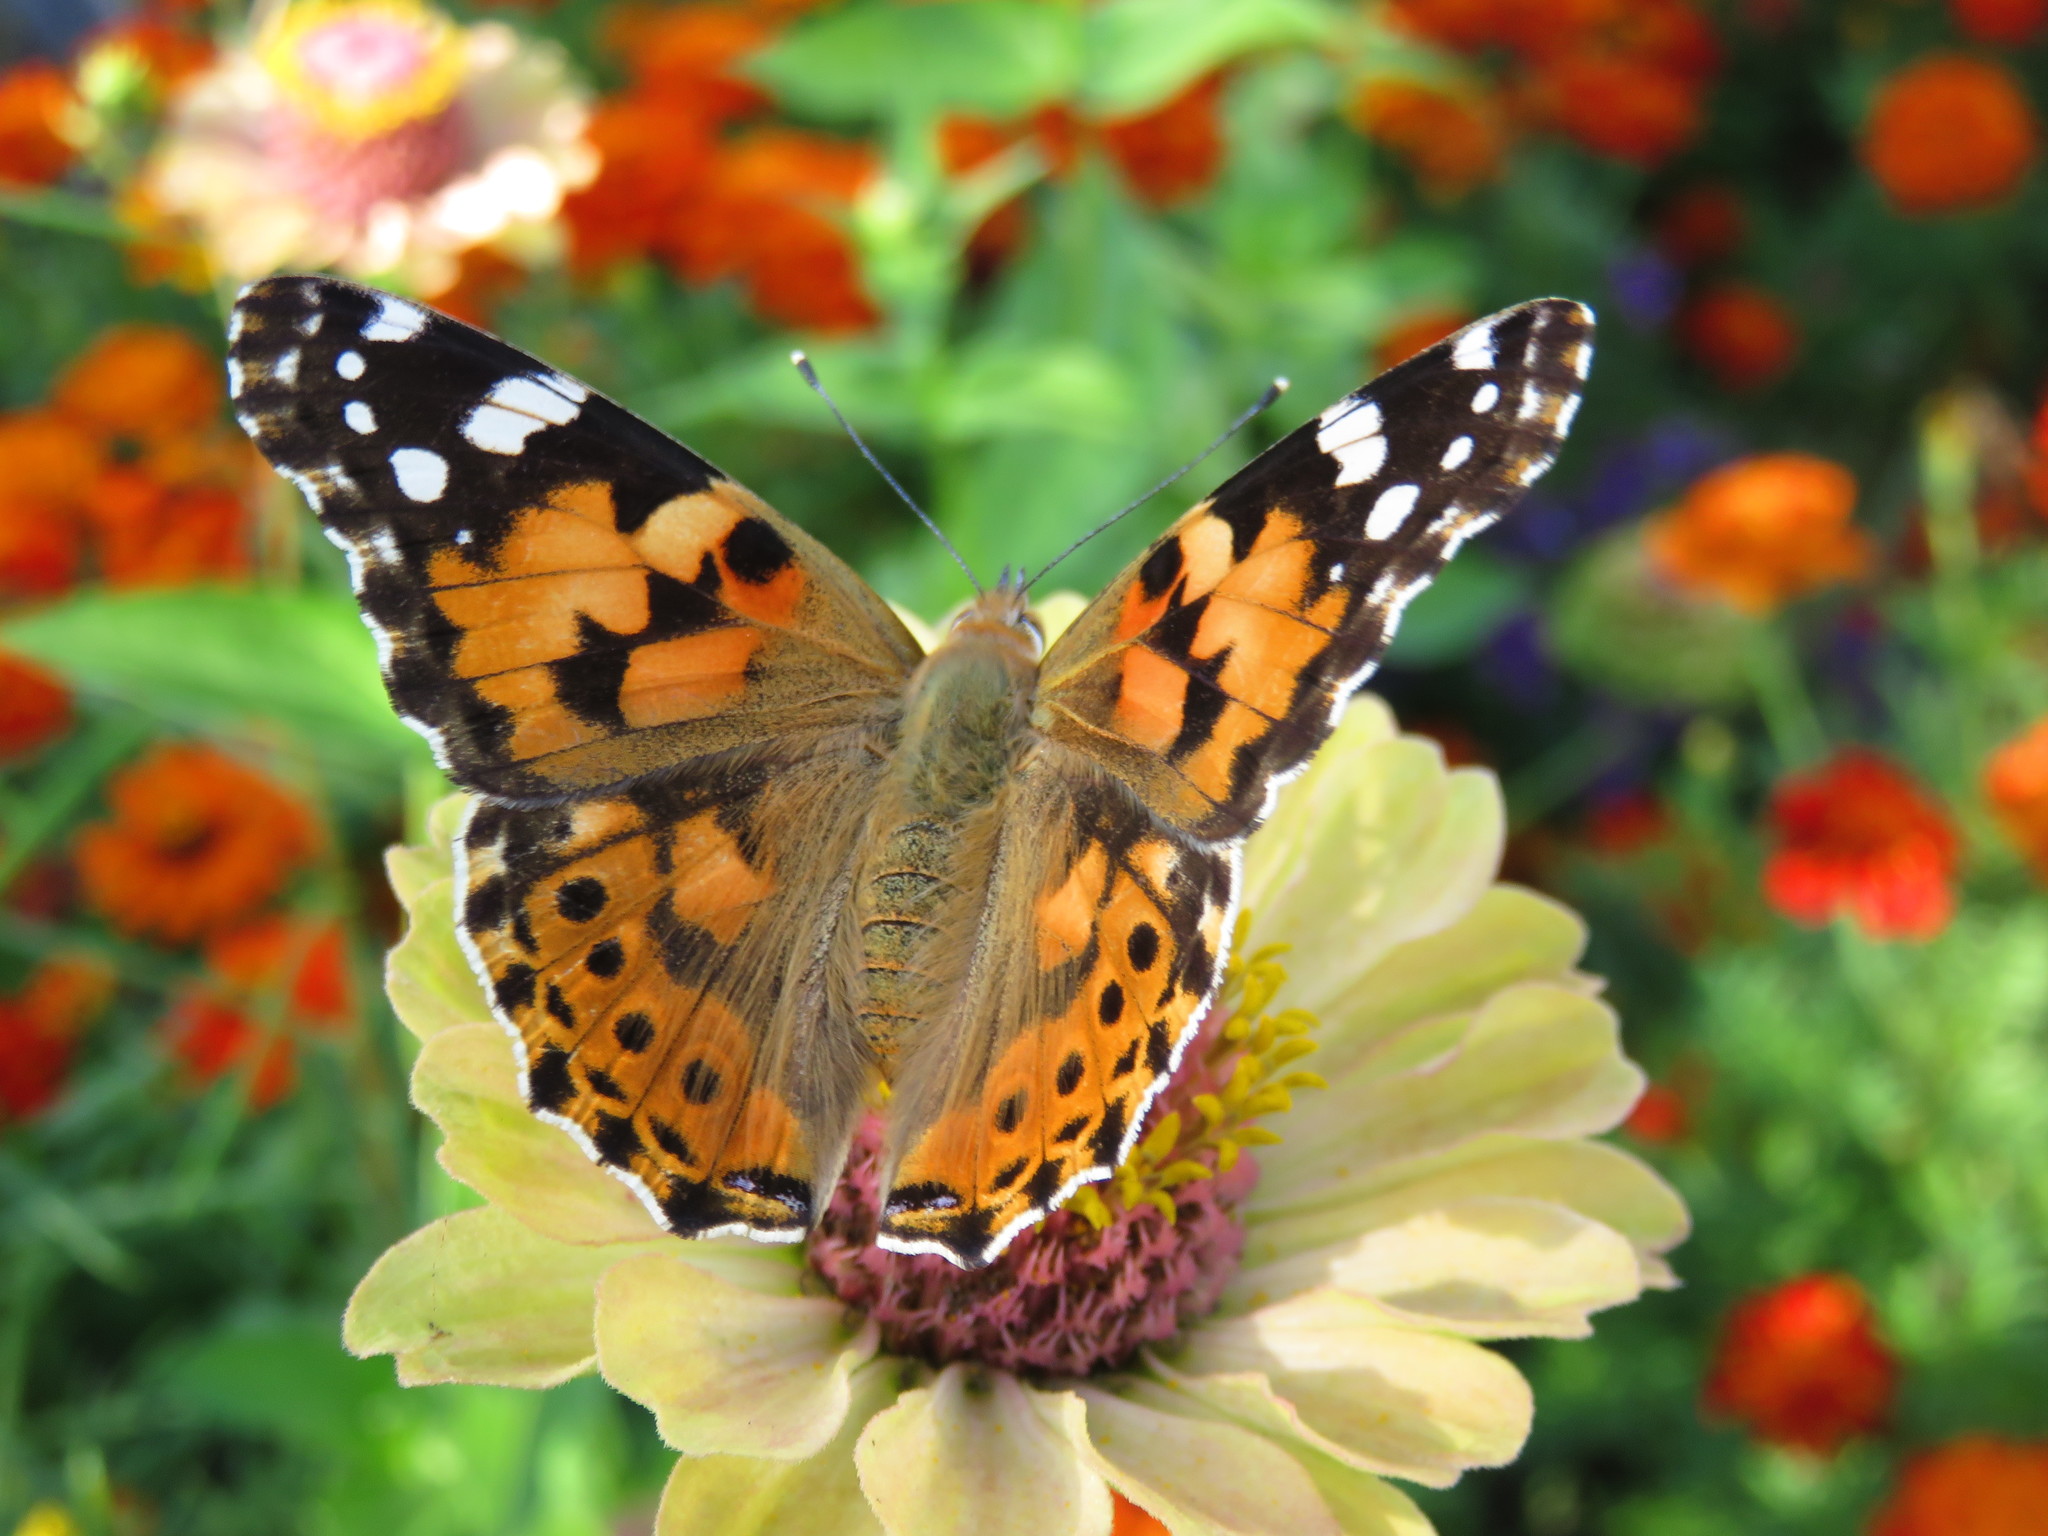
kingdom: Animalia
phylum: Arthropoda
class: Insecta
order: Lepidoptera
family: Nymphalidae
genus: Vanessa
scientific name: Vanessa cardui
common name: Painted lady
